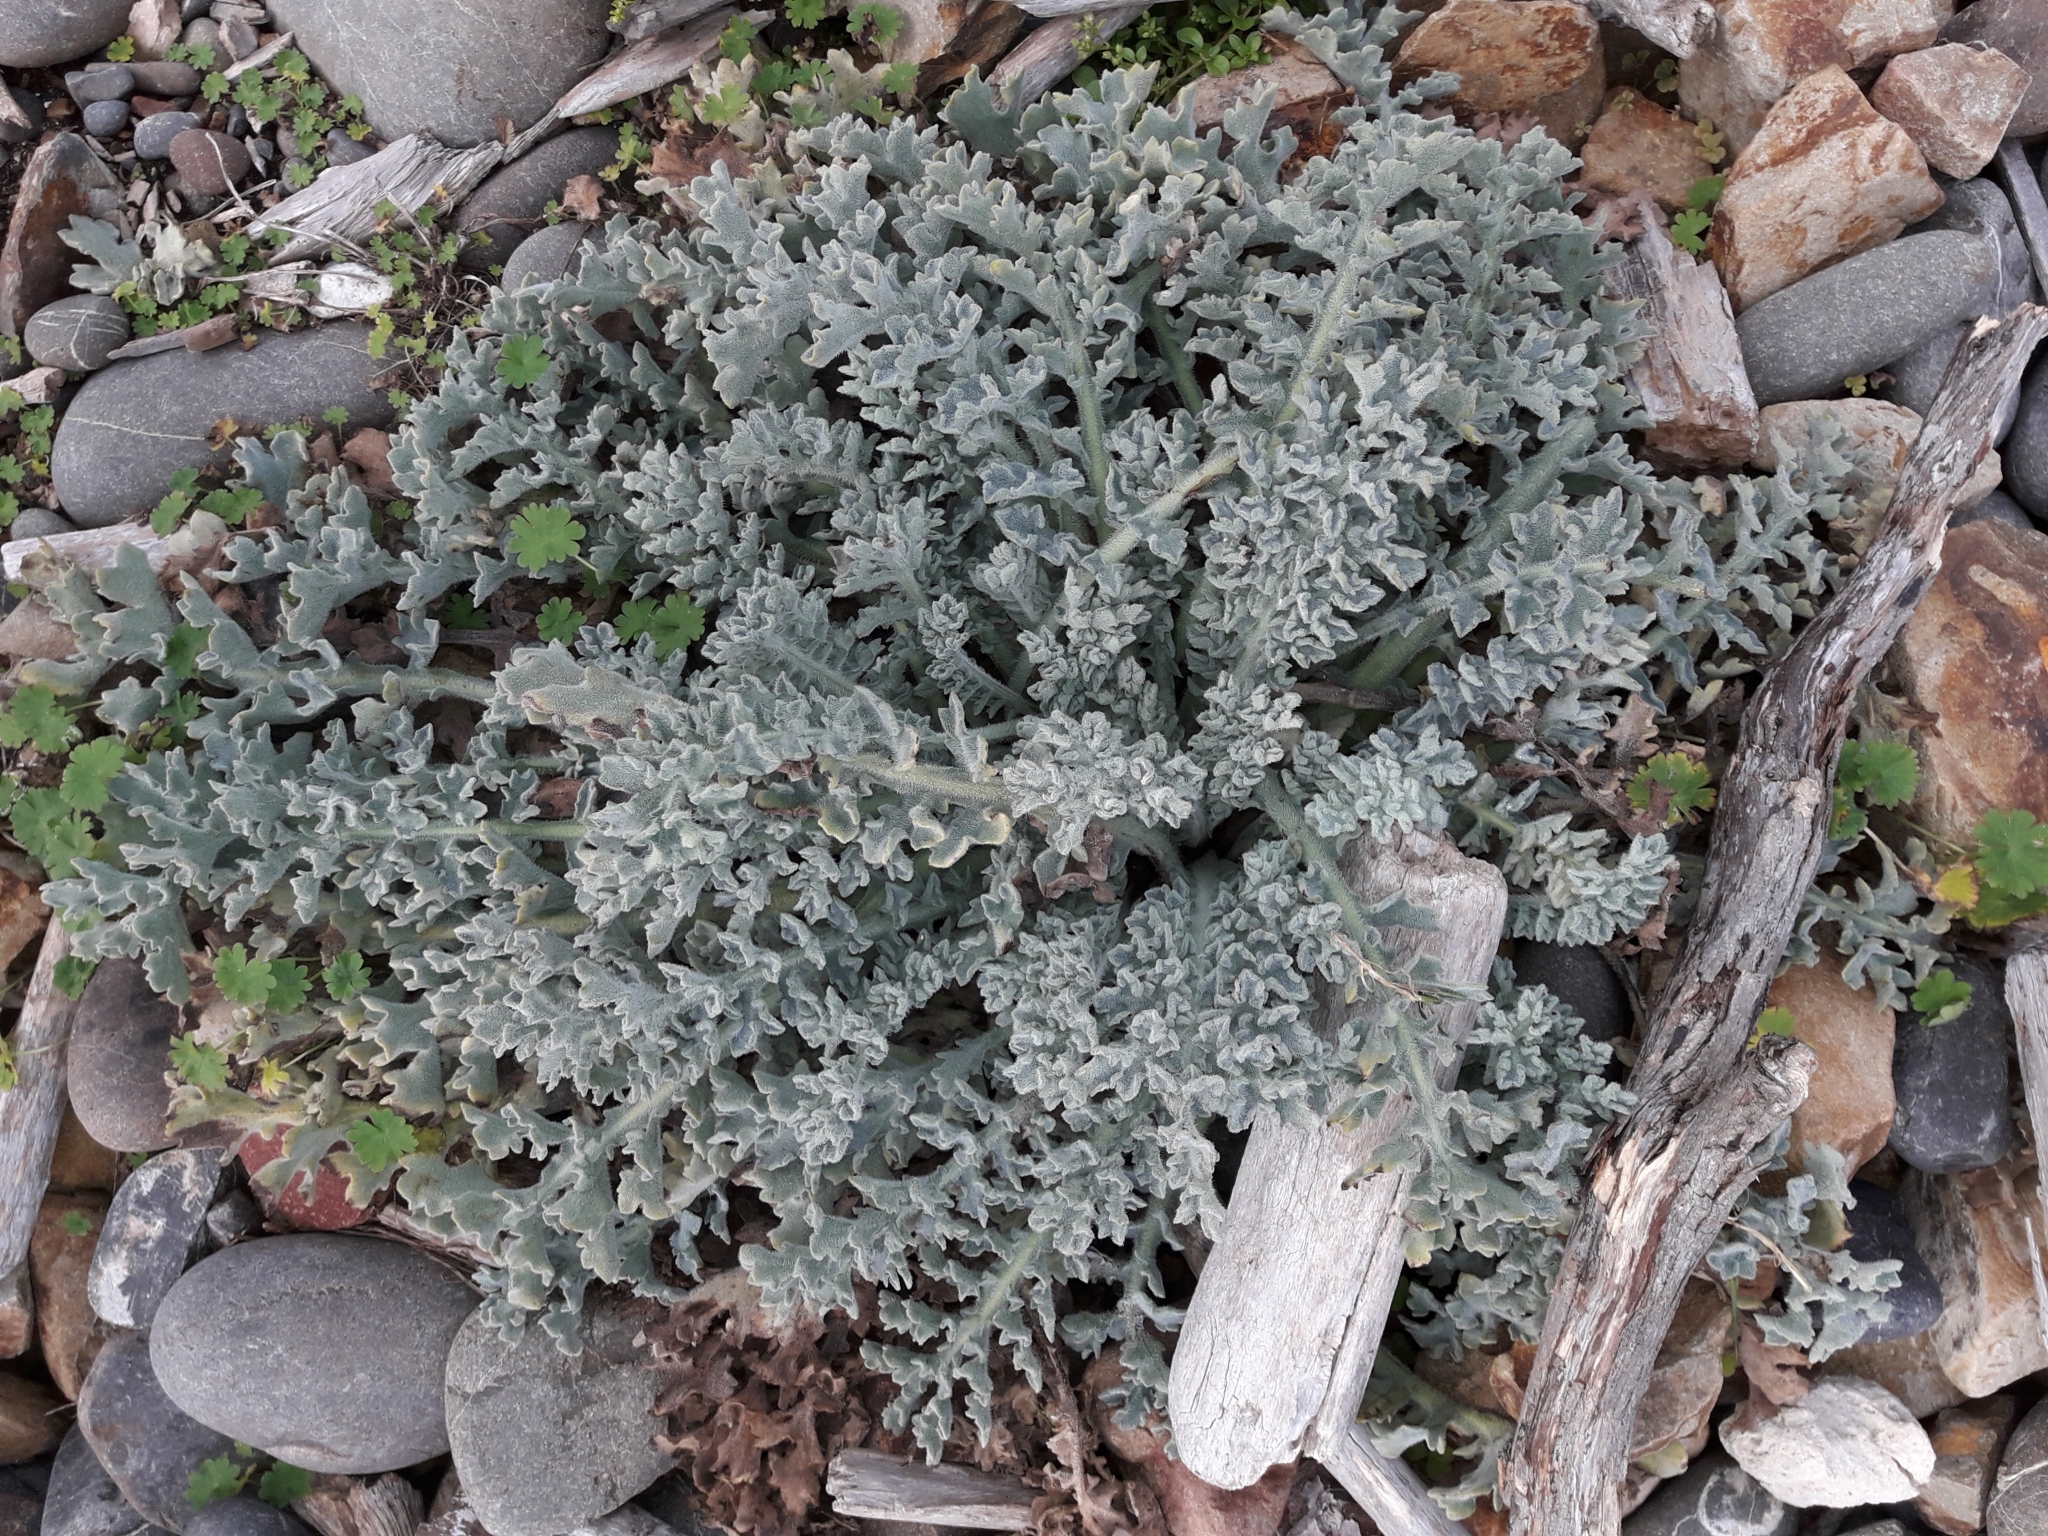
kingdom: Plantae
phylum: Tracheophyta
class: Magnoliopsida
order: Ranunculales
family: Papaveraceae
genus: Glaucium
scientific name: Glaucium flavum
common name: Yellow horned-poppy
